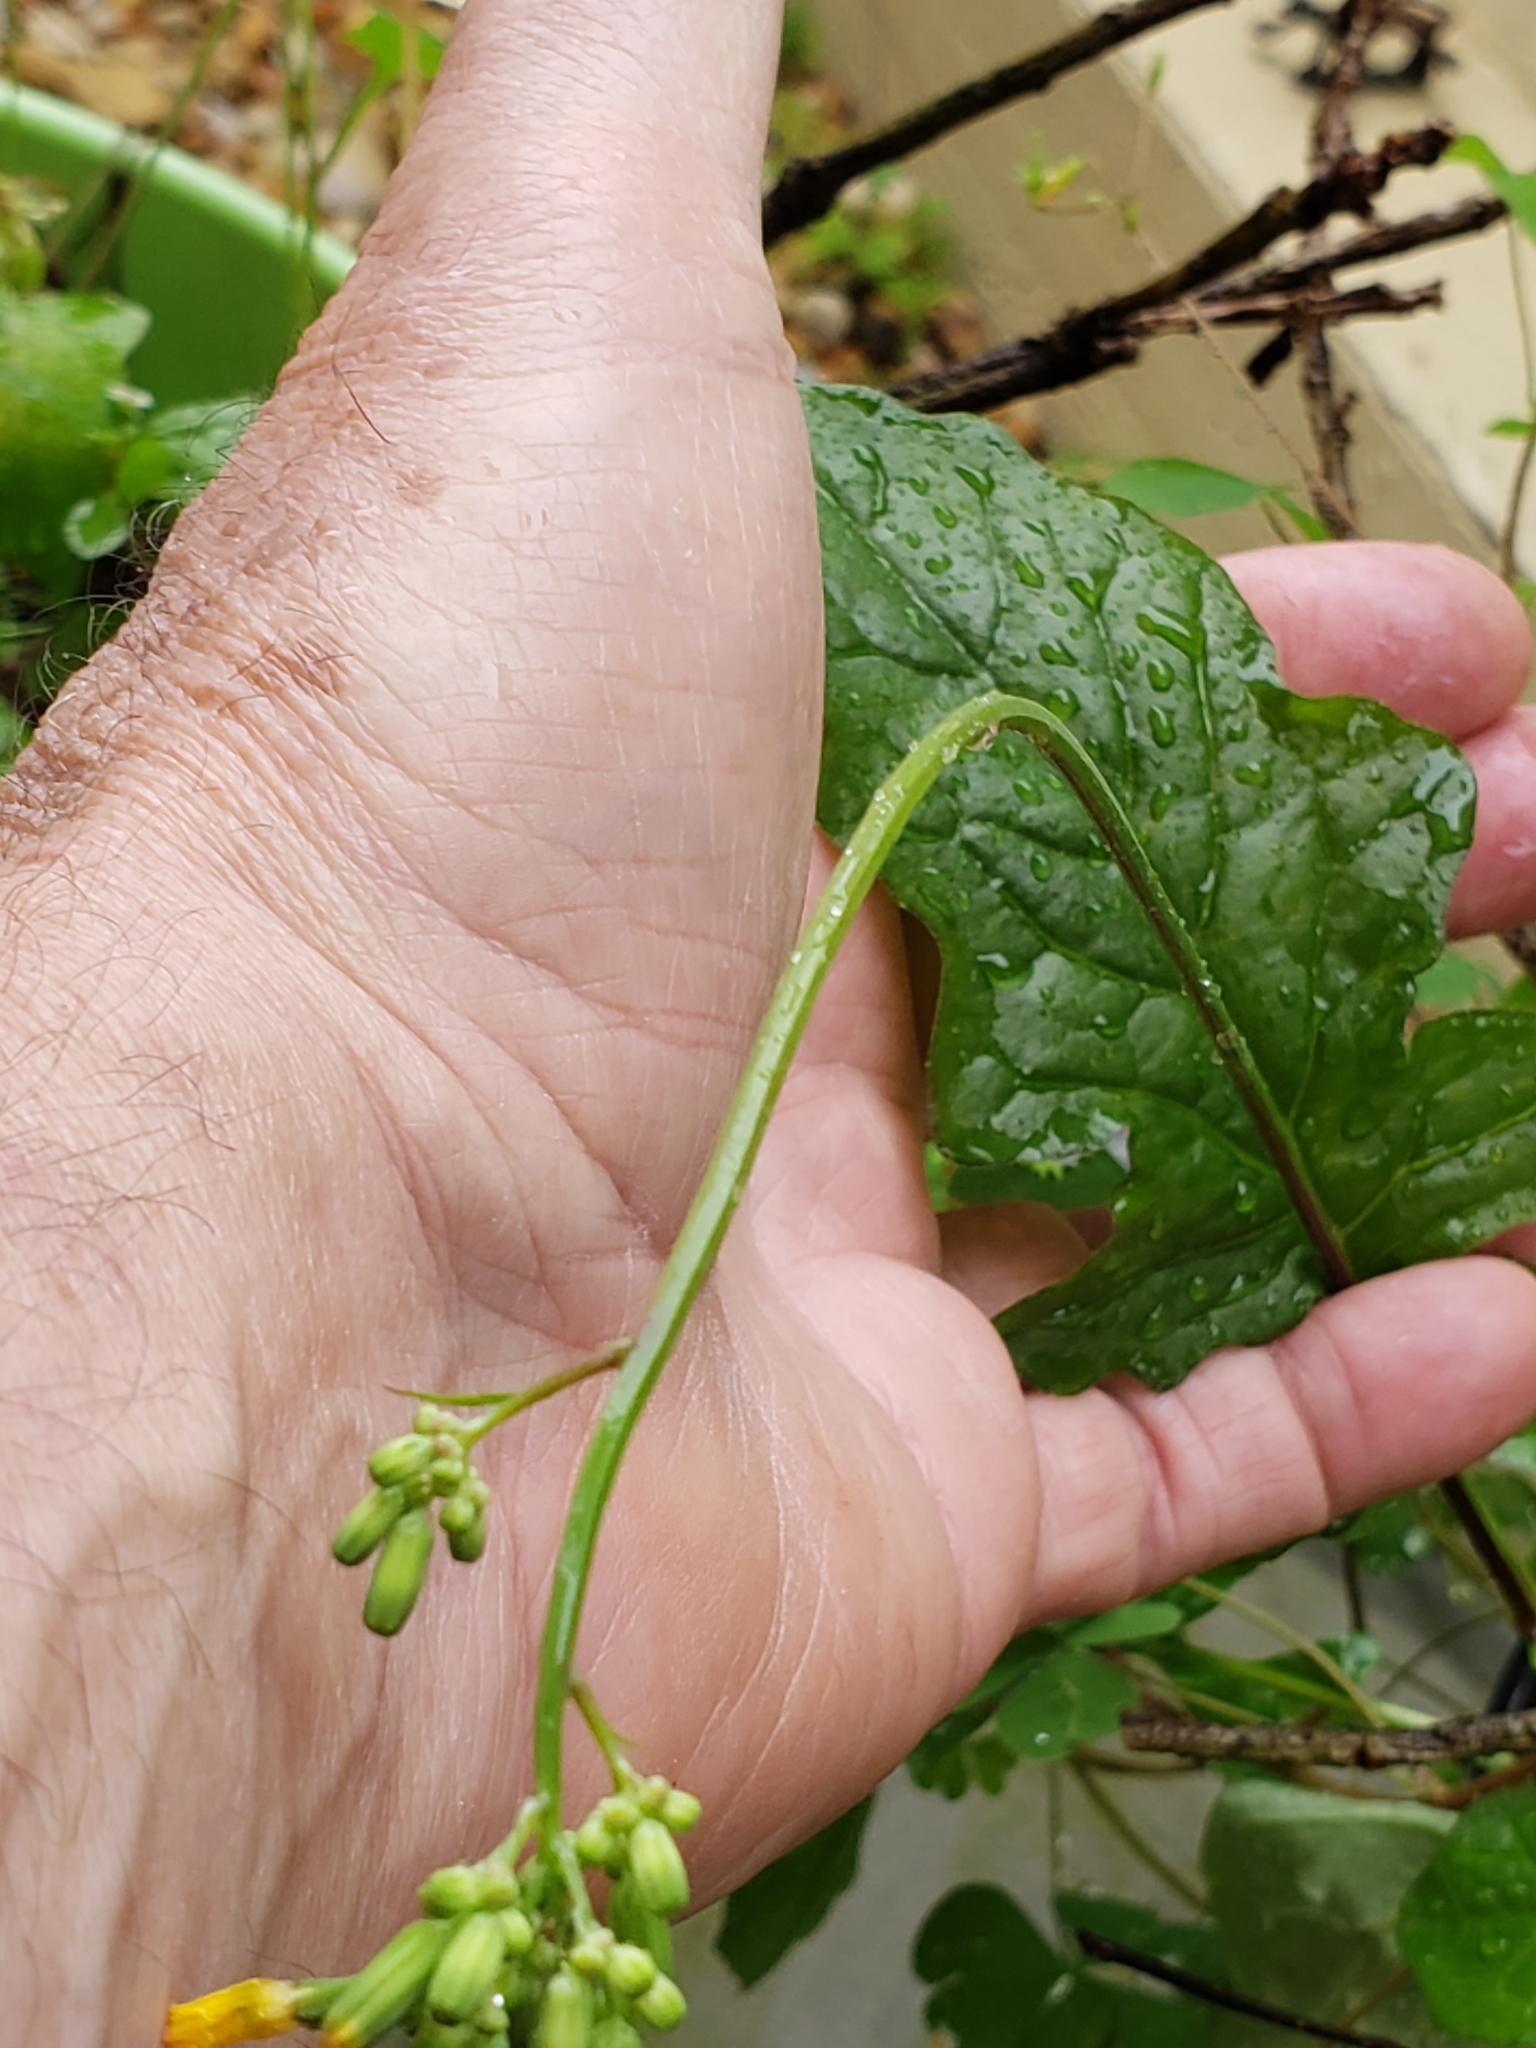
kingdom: Plantae
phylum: Tracheophyta
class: Magnoliopsida
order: Asterales
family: Asteraceae
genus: Youngia
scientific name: Youngia japonica
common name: Oriental false hawksbeard
